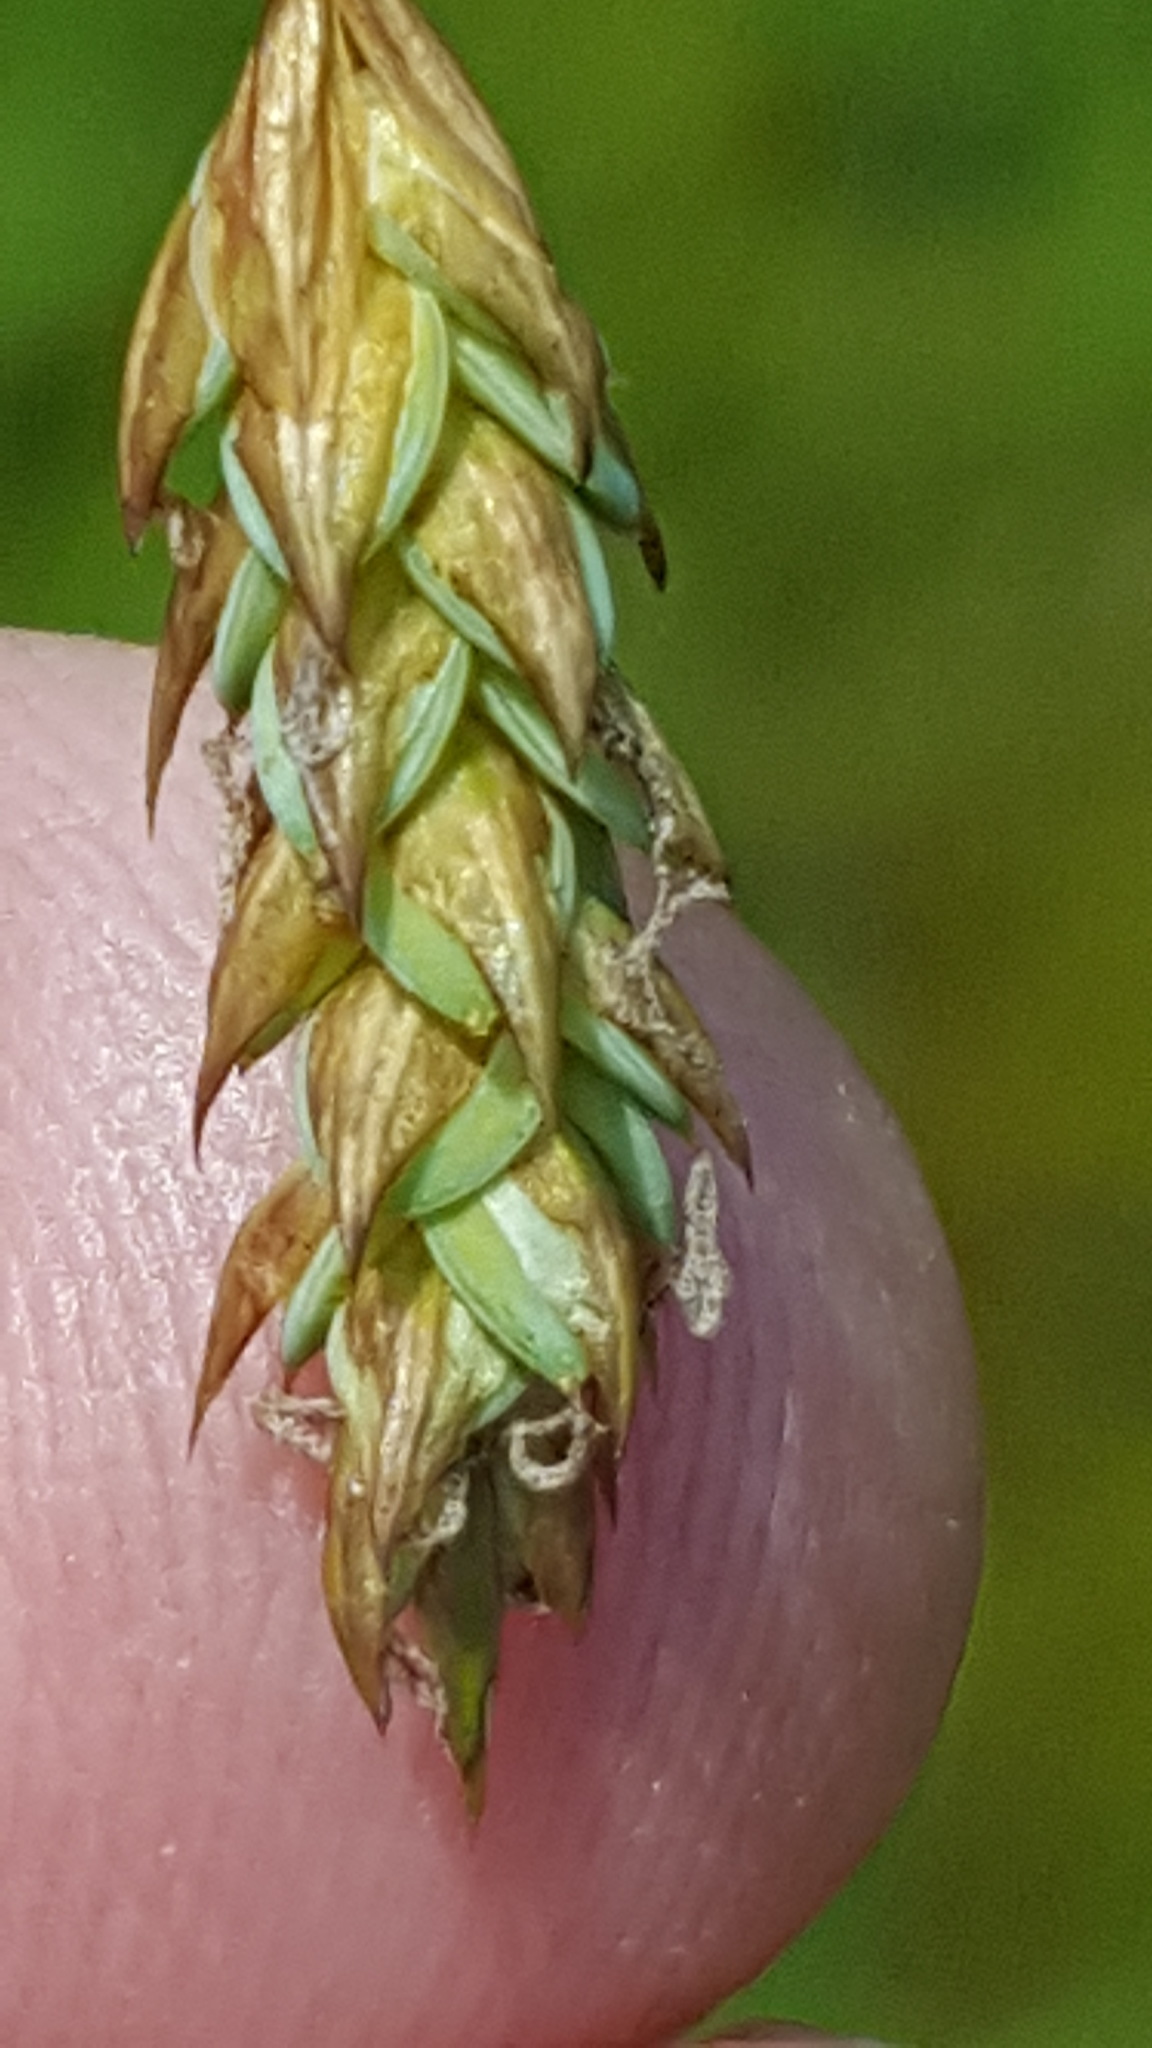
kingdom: Plantae
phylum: Tracheophyta
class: Liliopsida
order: Poales
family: Cyperaceae
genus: Carex
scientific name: Carex magellanica
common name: Bog sedge
